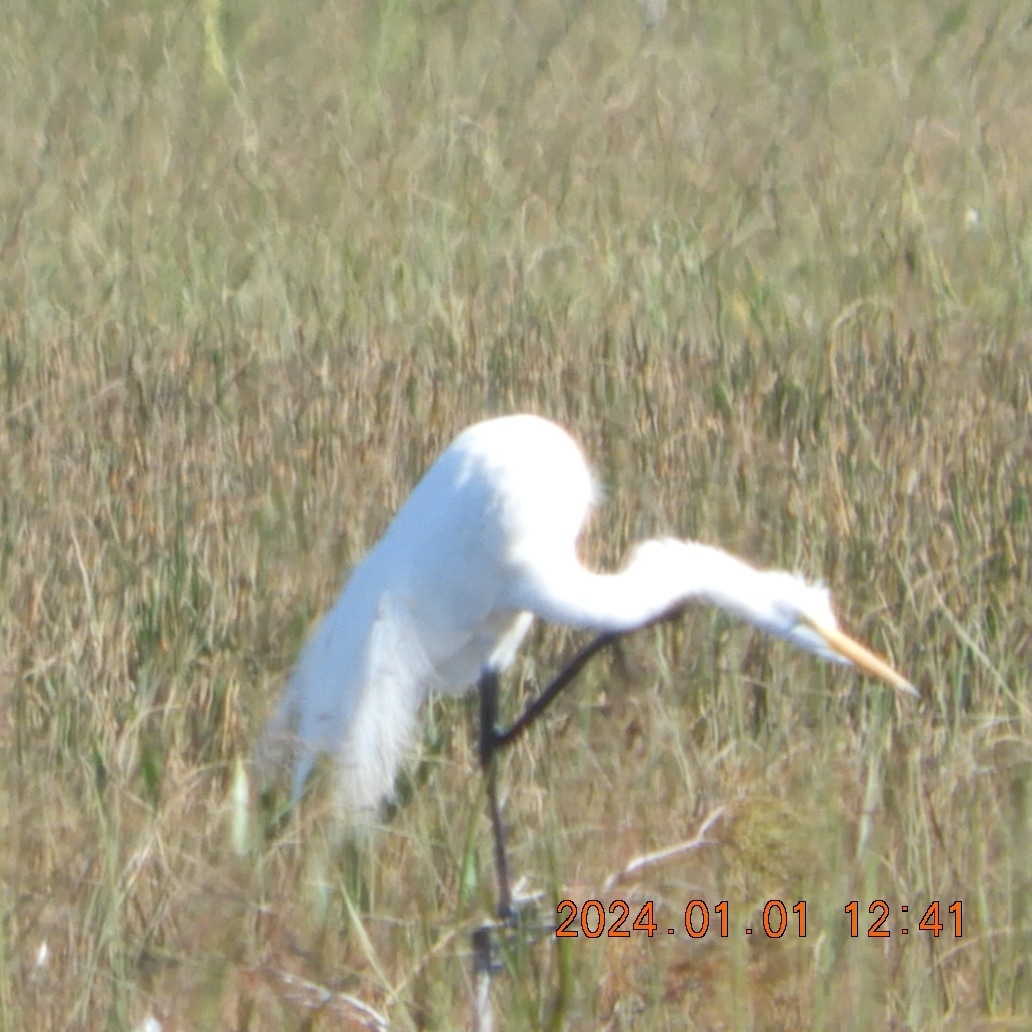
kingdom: Animalia
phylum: Chordata
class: Aves
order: Pelecaniformes
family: Ardeidae
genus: Ardea
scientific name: Ardea alba
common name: Great egret
